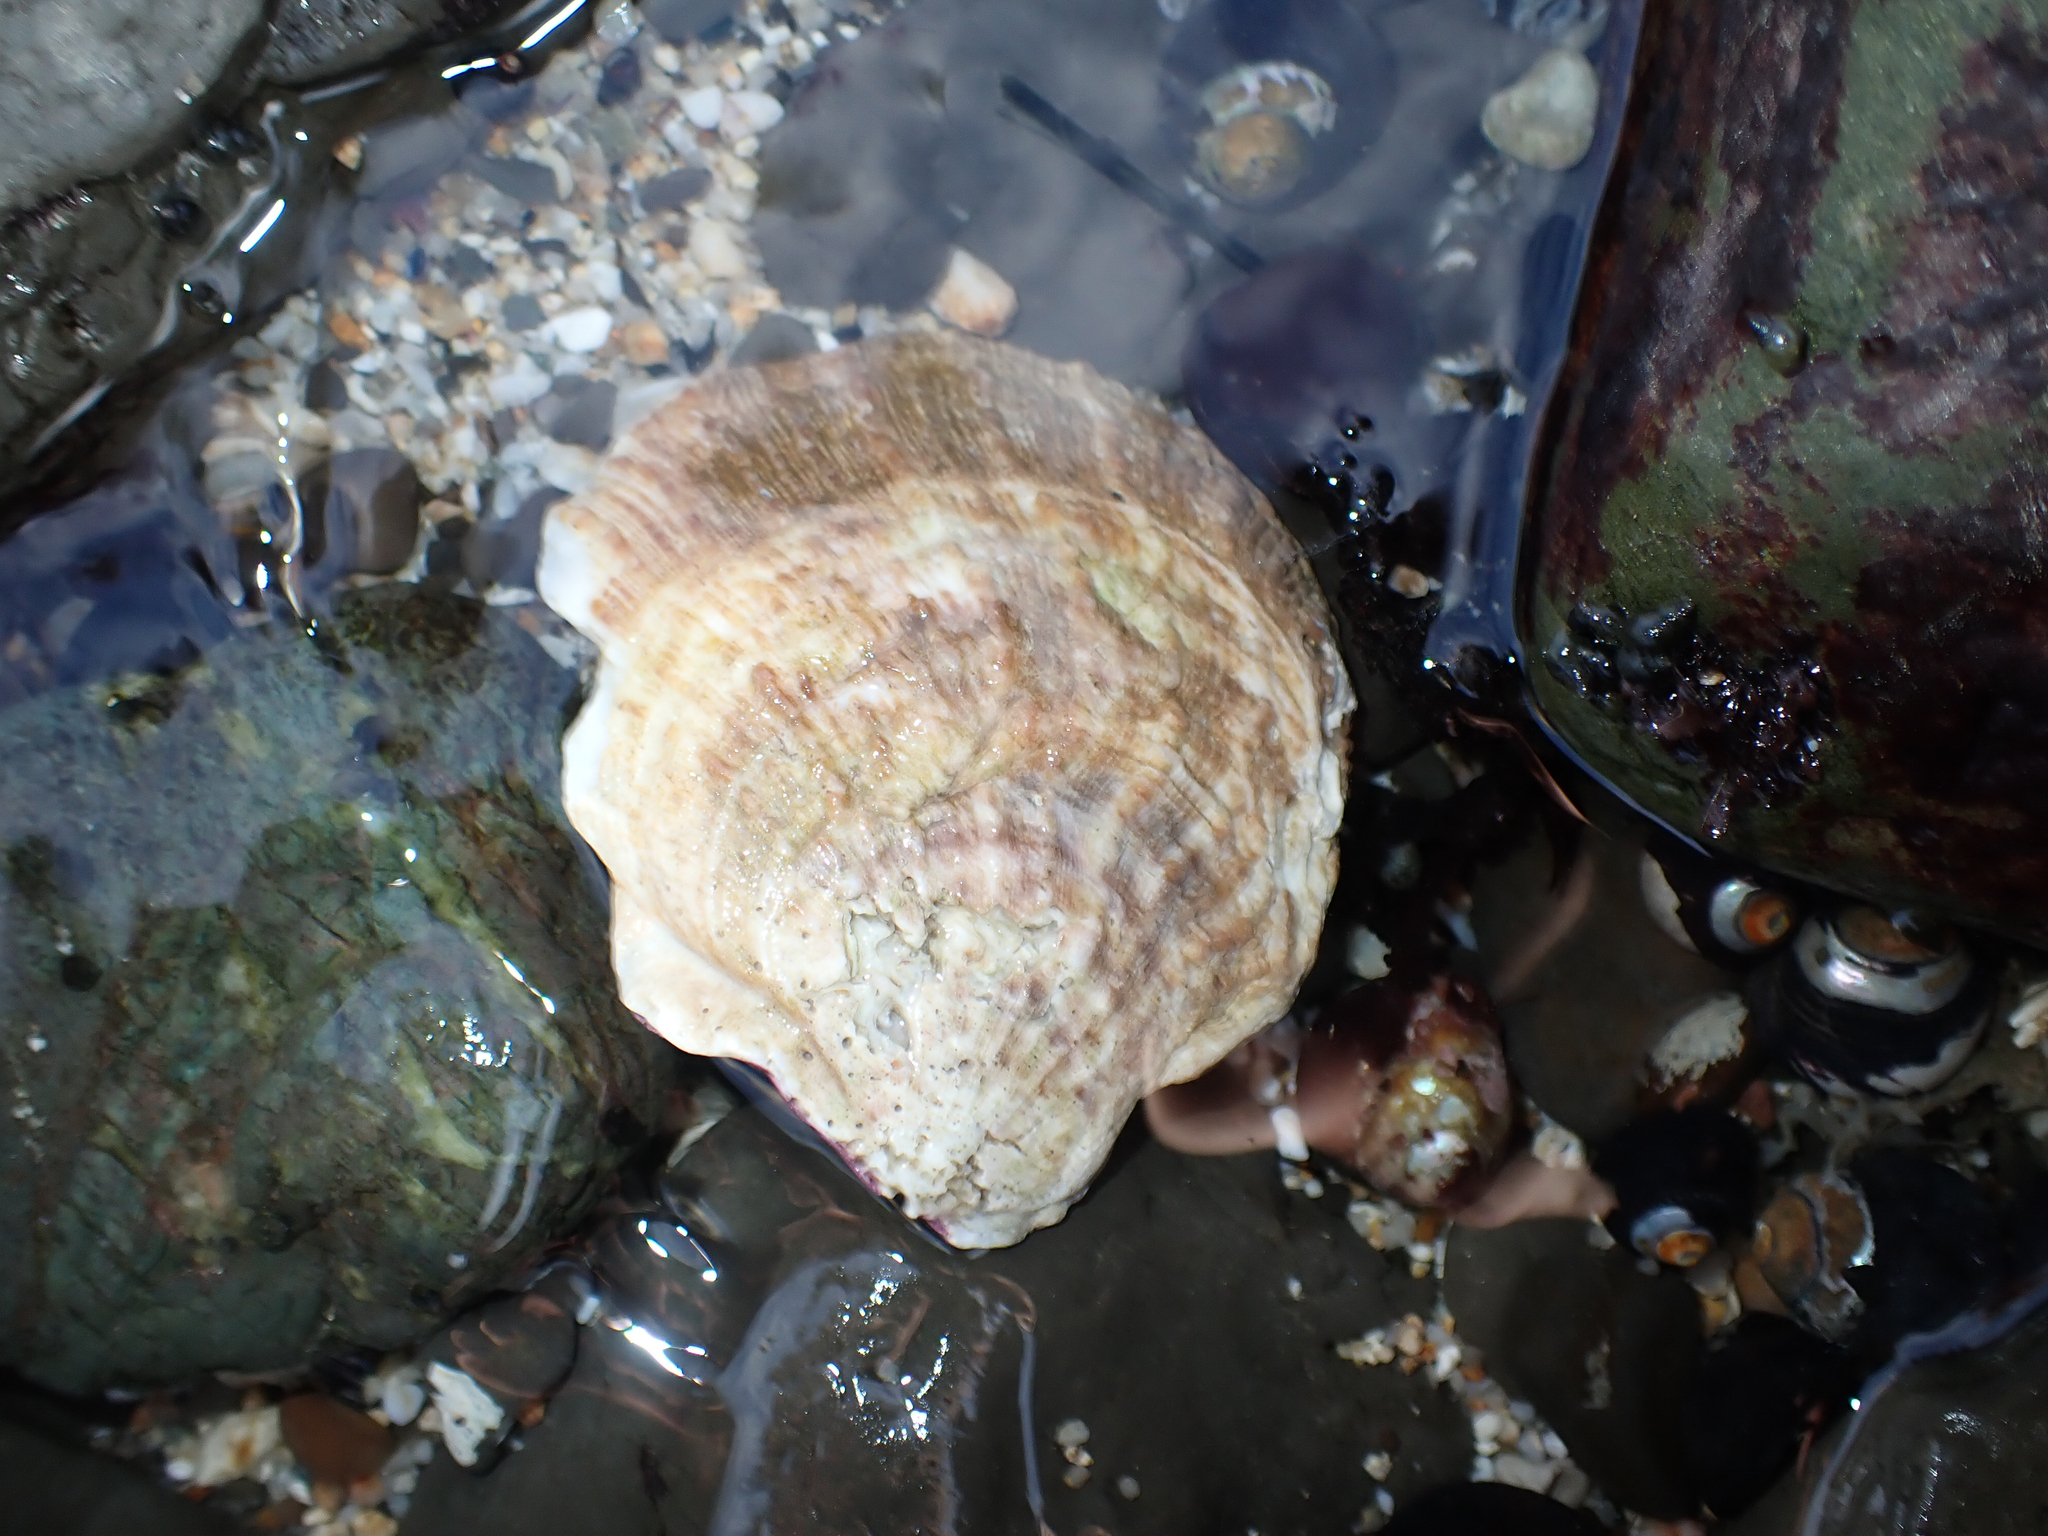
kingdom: Animalia
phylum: Mollusca
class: Bivalvia
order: Pectinida
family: Pectinidae
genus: Crassadoma
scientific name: Crassadoma gigantea
